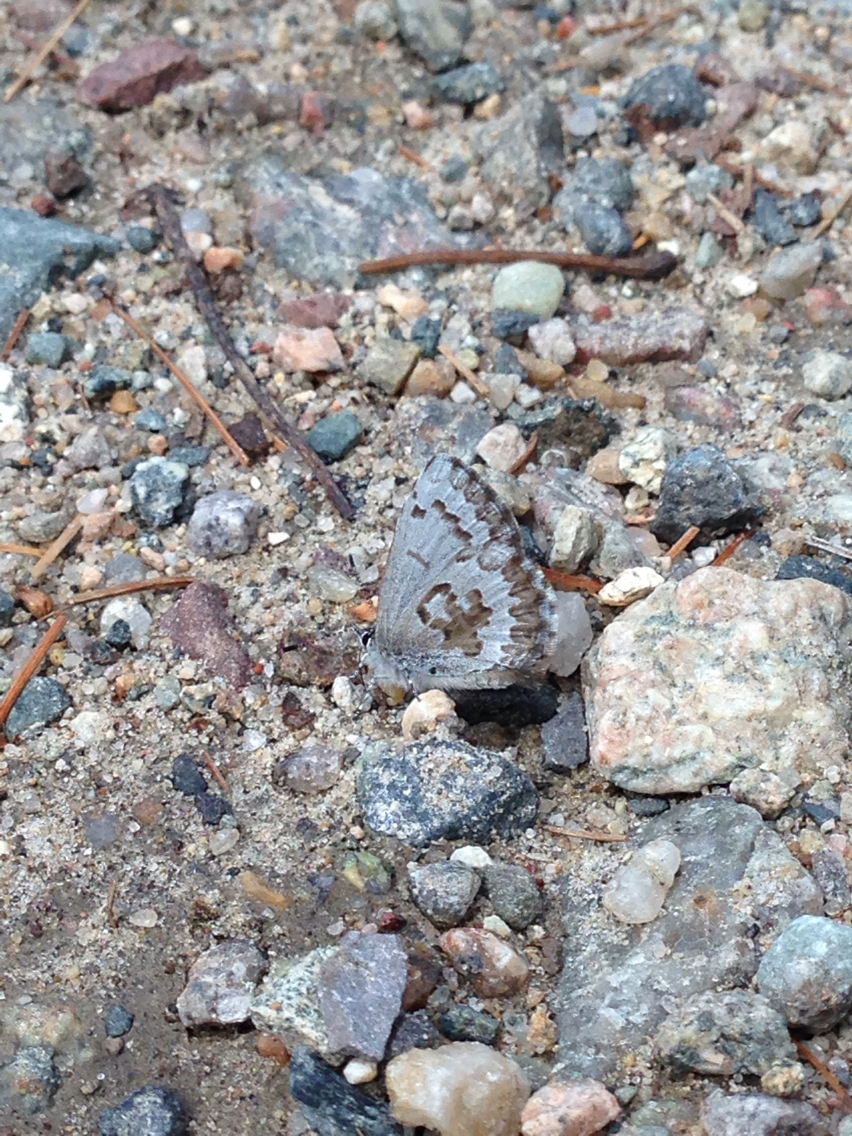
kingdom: Animalia
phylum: Arthropoda
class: Insecta
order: Lepidoptera
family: Lycaenidae
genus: Celastrina
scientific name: Celastrina ladon
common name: Spring azure
